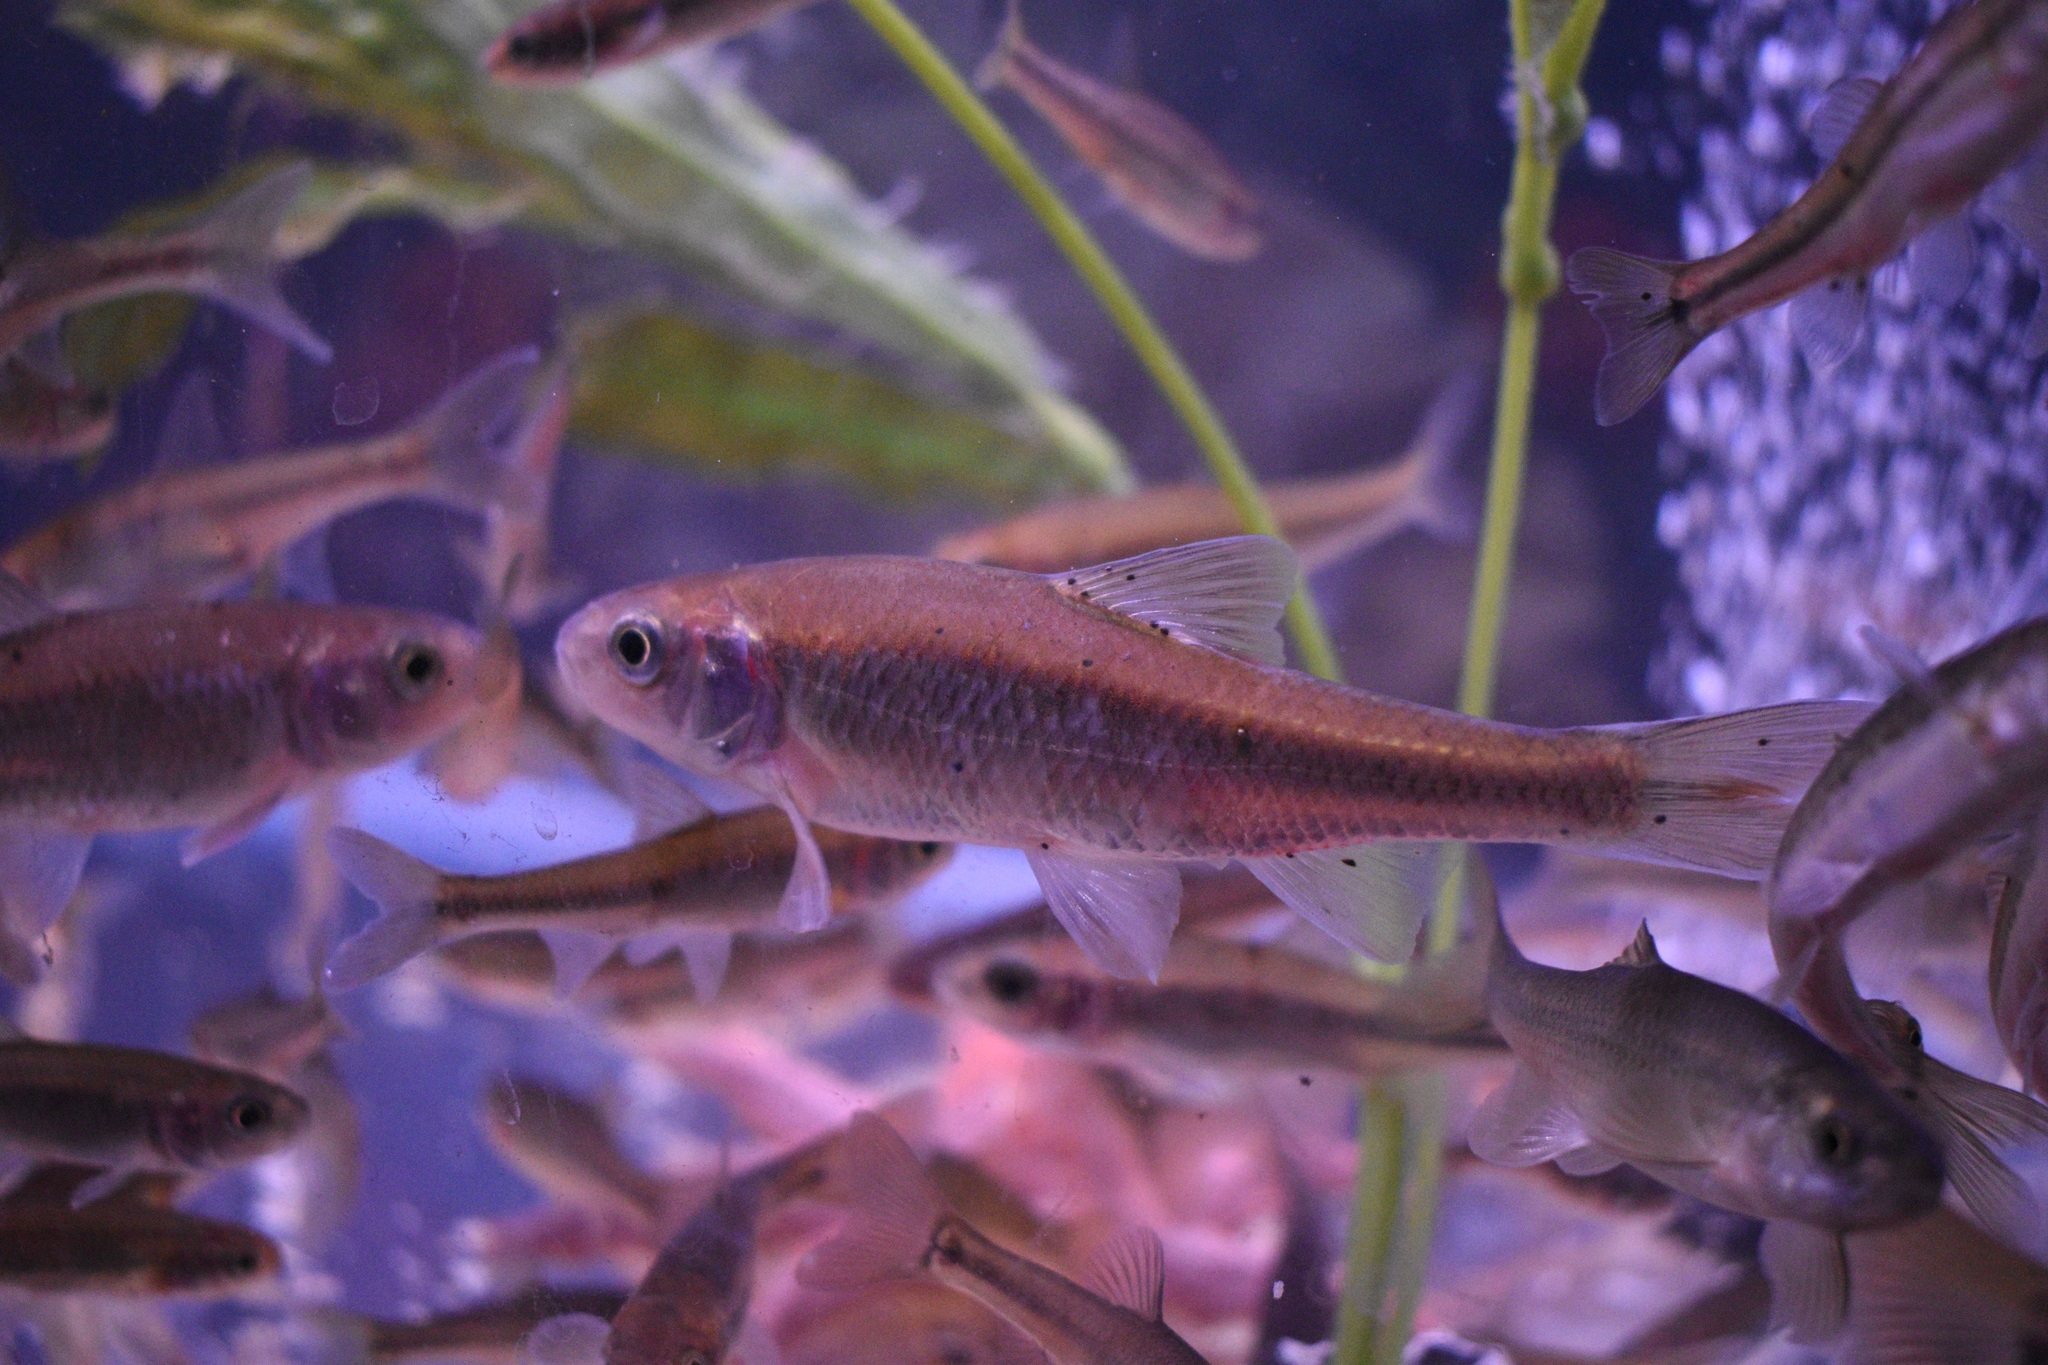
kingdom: Animalia
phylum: Chordata
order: Cypriniformes
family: Cyprinidae
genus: Luxilus
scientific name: Luxilus cornutus
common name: Common shiner
